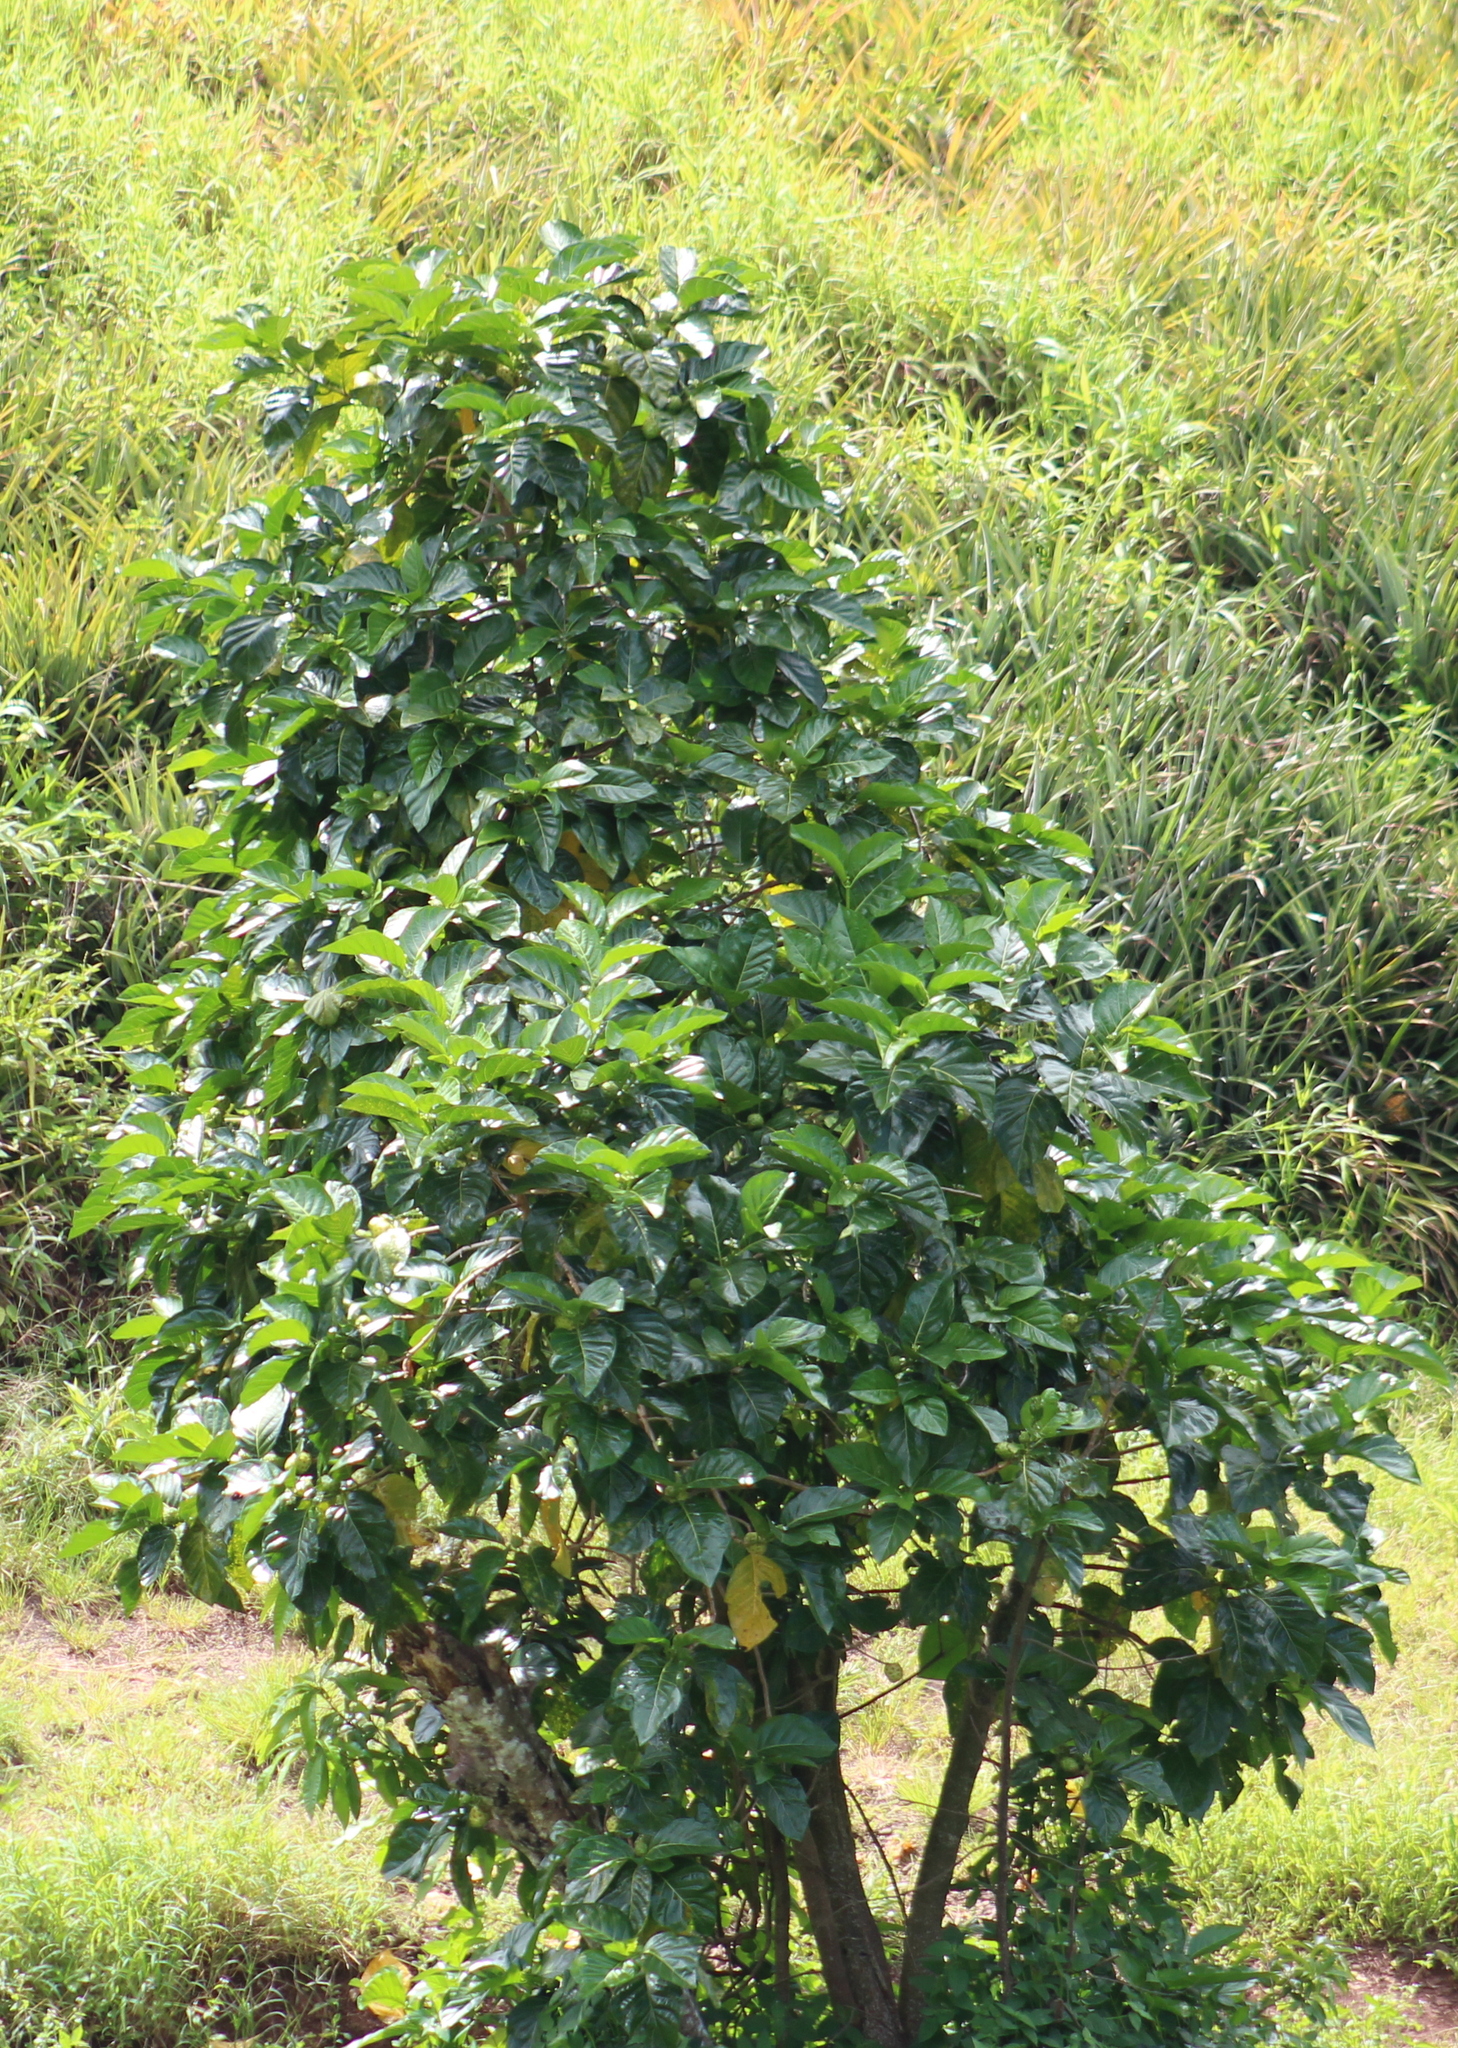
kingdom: Plantae
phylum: Tracheophyta
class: Magnoliopsida
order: Gentianales
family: Rubiaceae
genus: Morinda
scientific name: Morinda citrifolia
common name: Indian-mulberry
